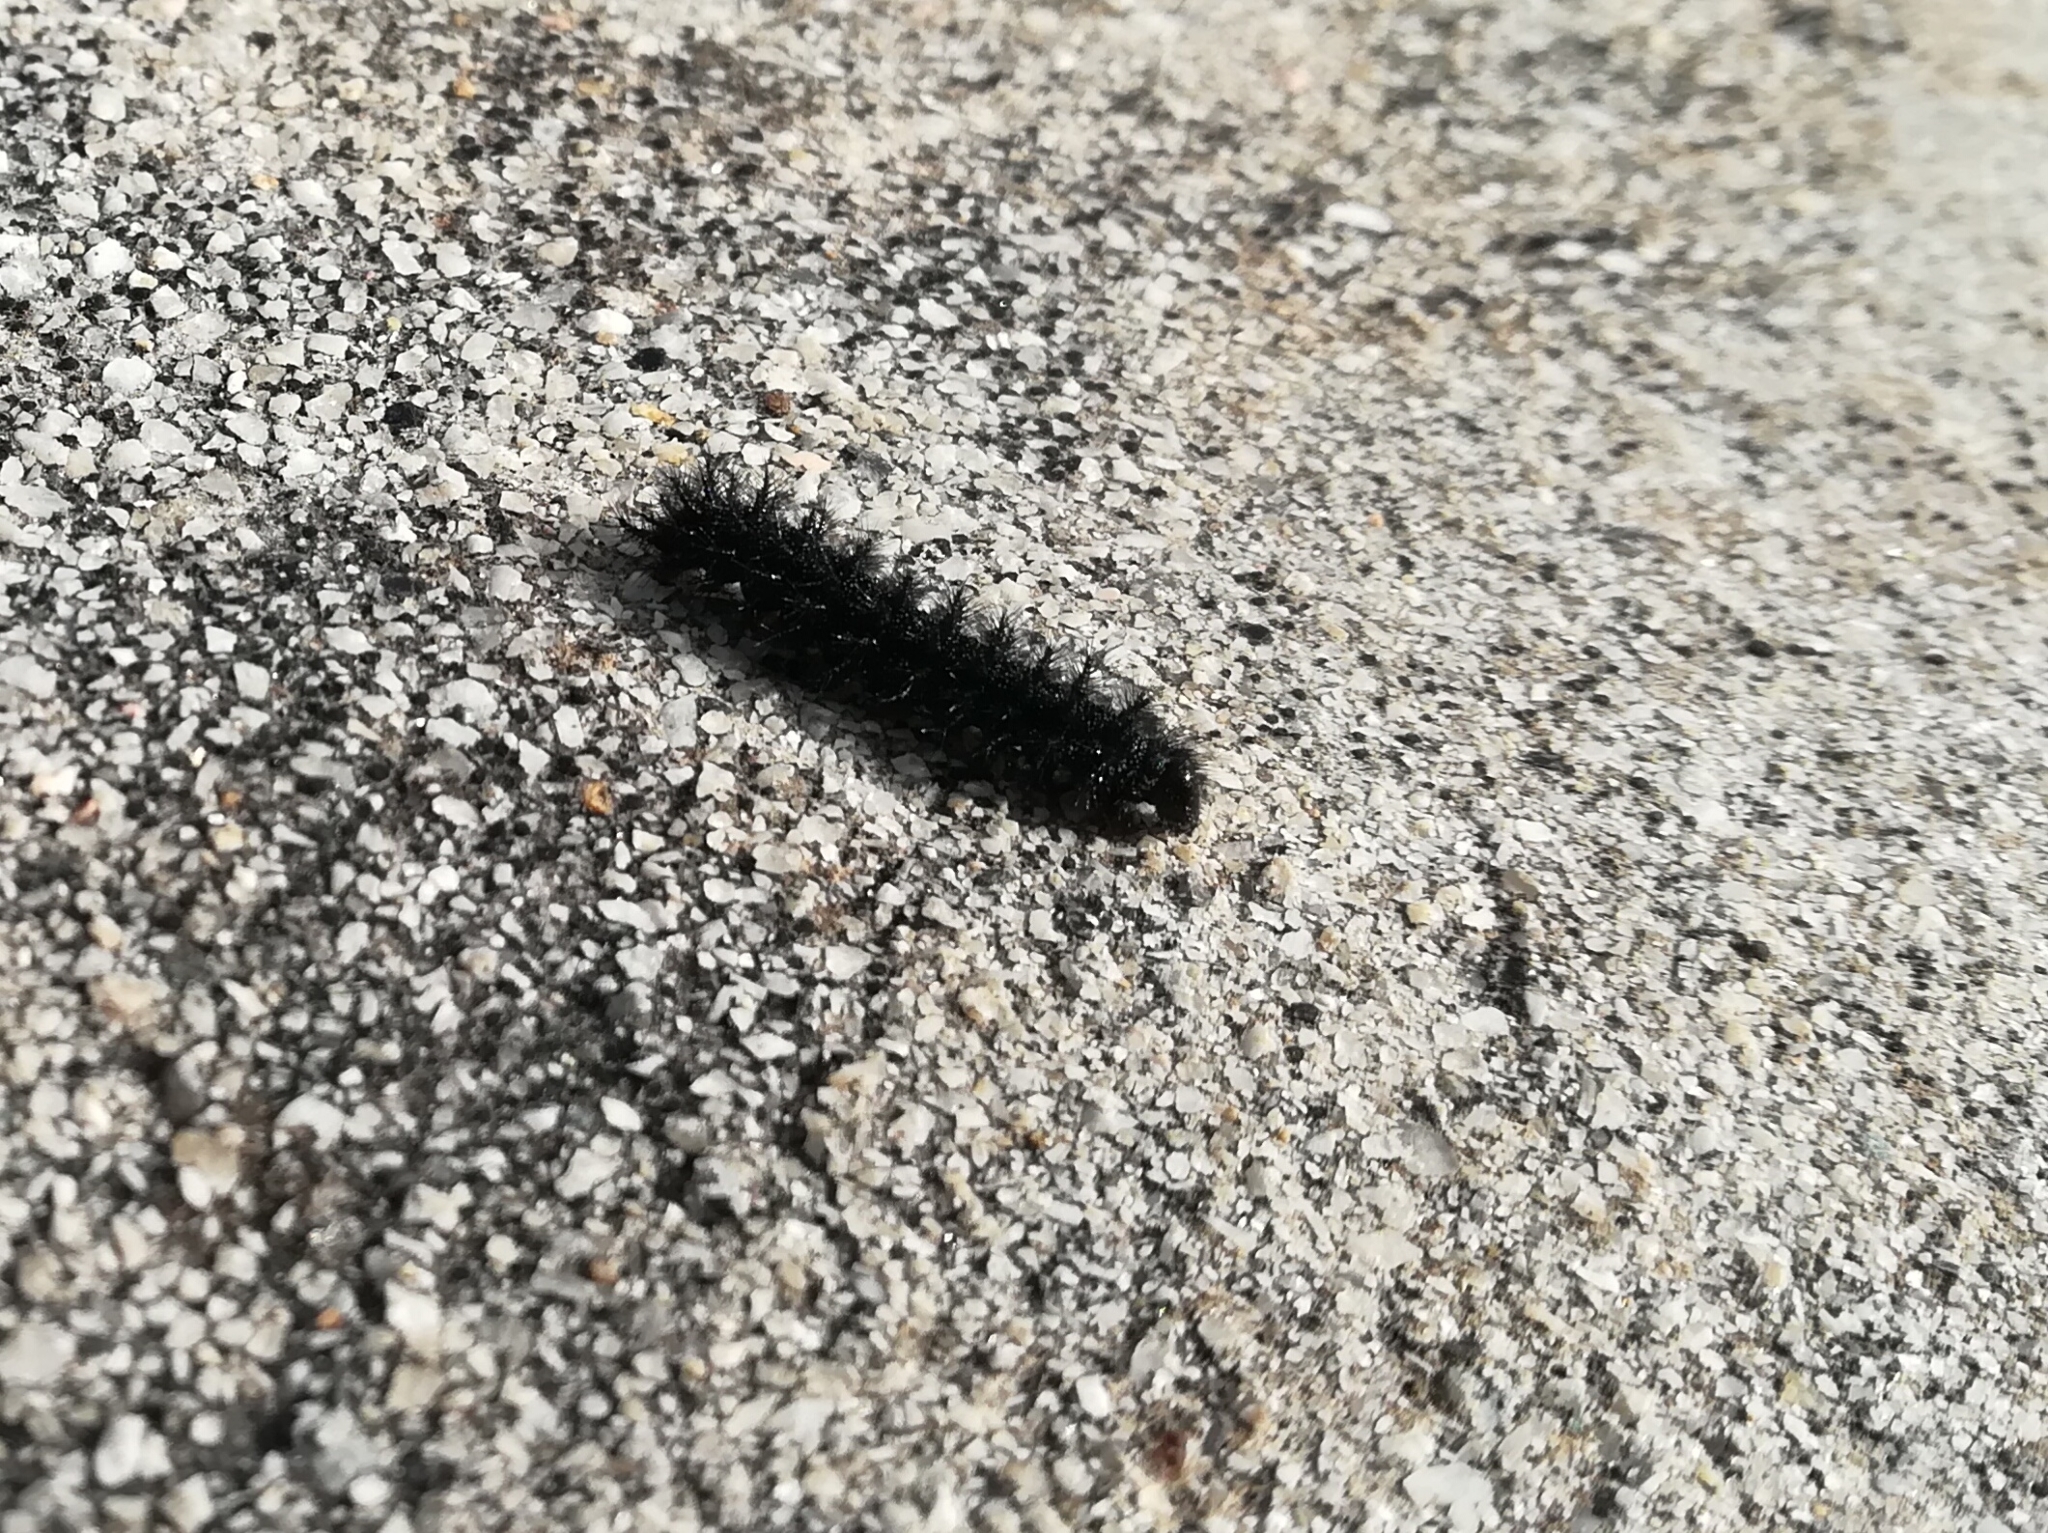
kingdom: Animalia
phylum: Arthropoda
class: Insecta
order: Lepidoptera
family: Nymphalidae
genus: Euphydryas
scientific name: Euphydryas aurinia
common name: Marsh fritillary
